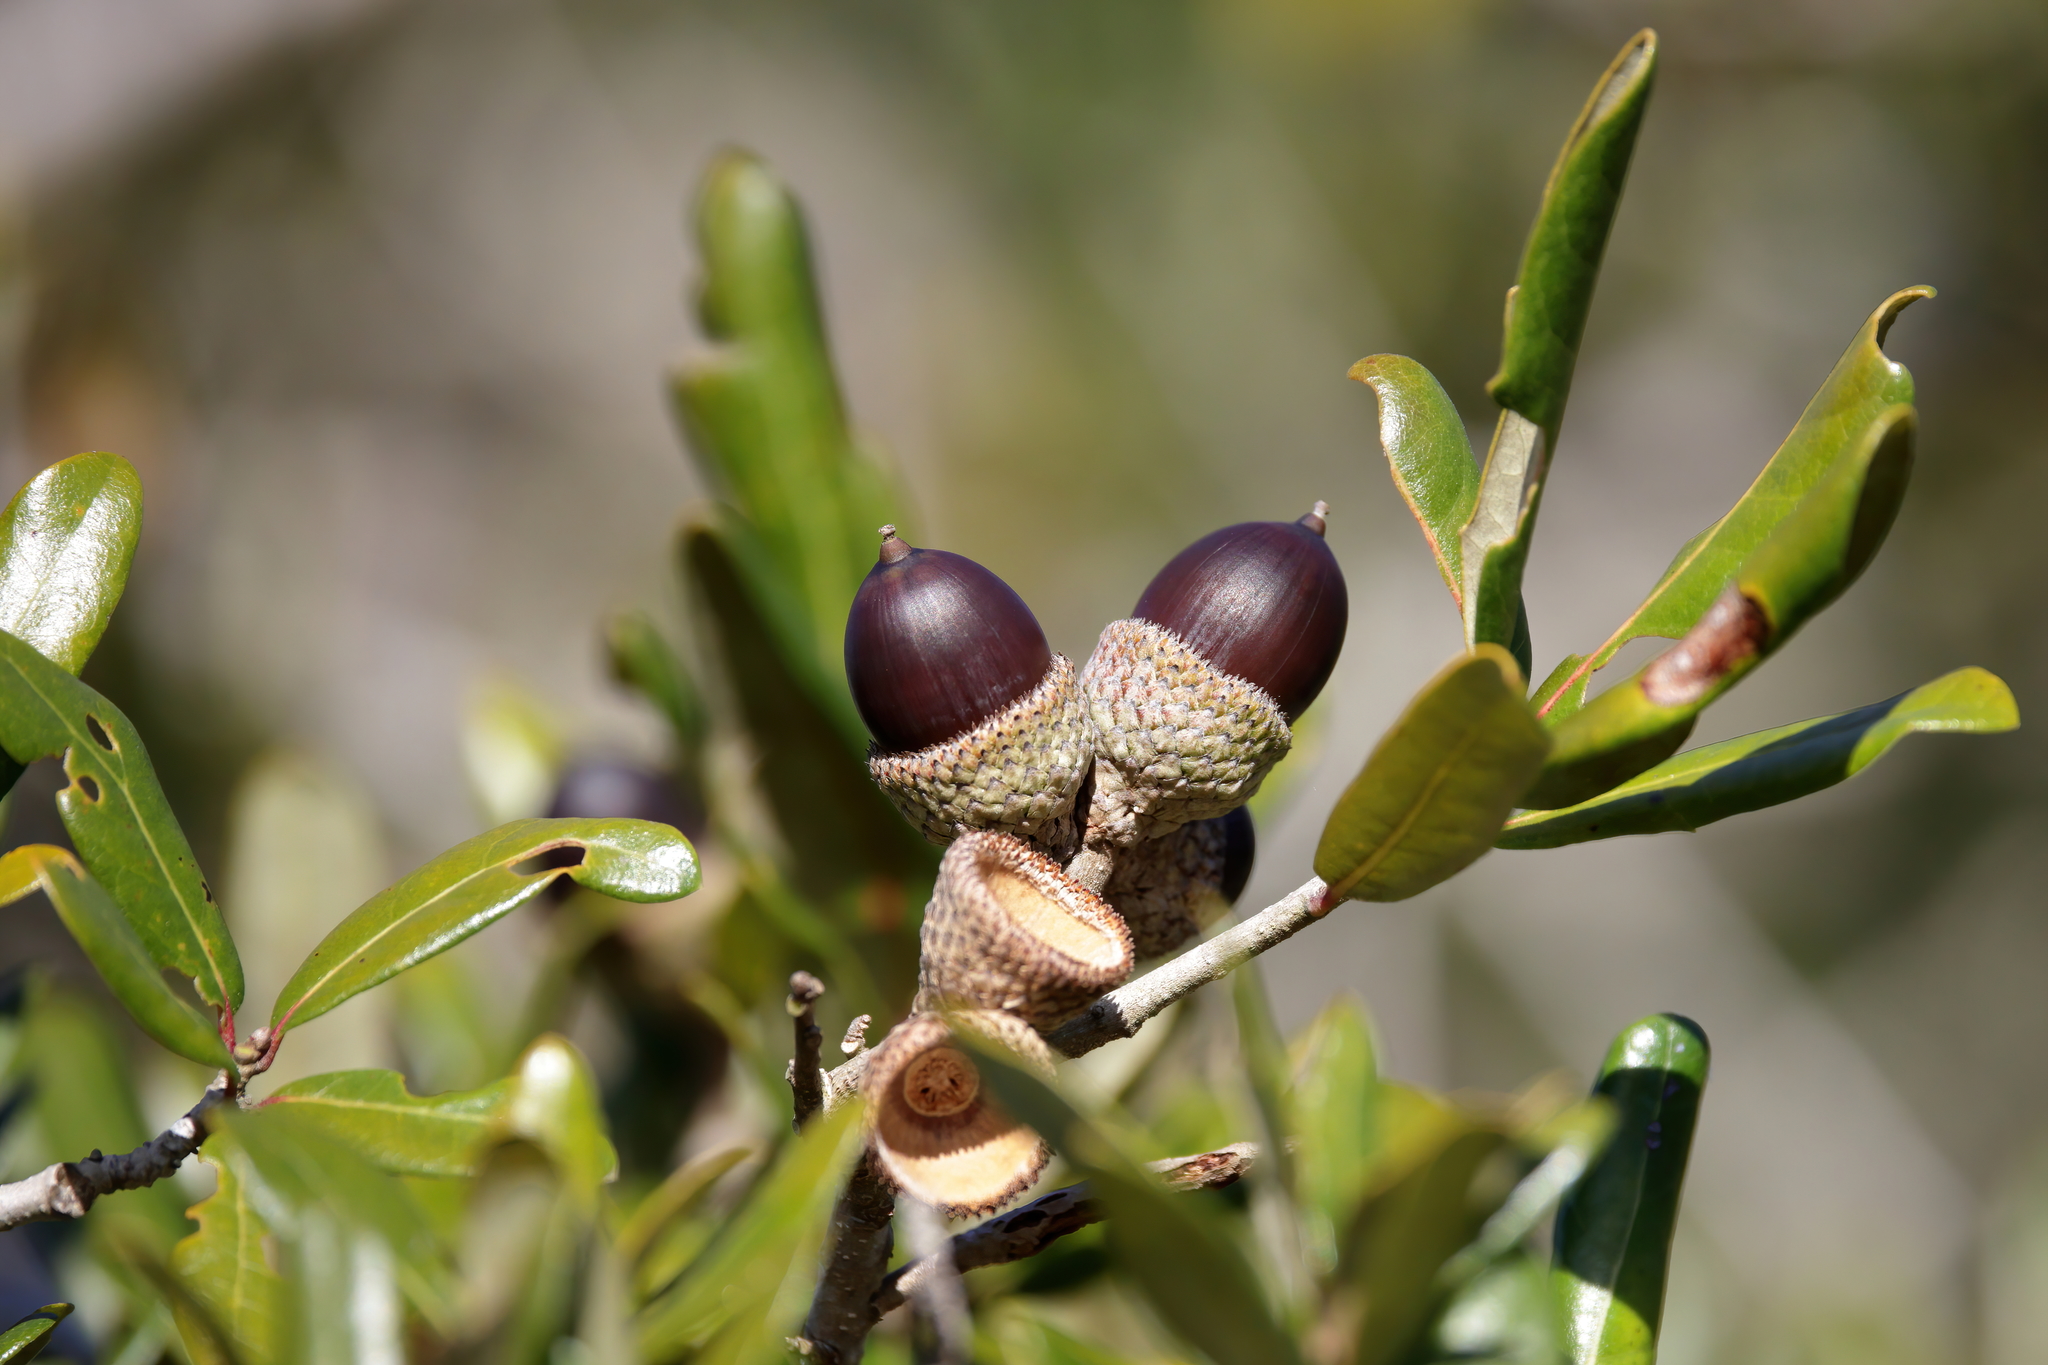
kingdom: Plantae
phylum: Tracheophyta
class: Magnoliopsida
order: Fagales
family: Fagaceae
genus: Quercus
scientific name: Quercus geminata
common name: Sand live oak
